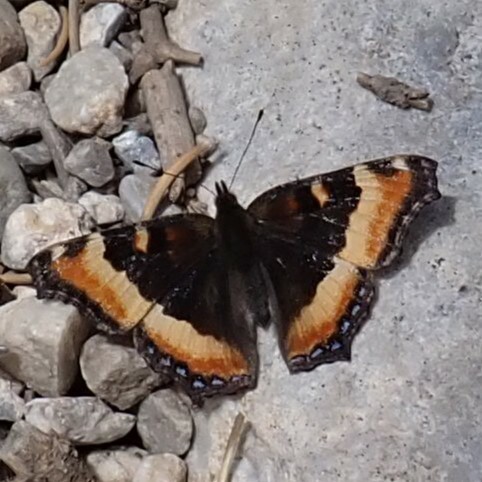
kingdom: Animalia
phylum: Arthropoda
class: Insecta
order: Lepidoptera
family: Nymphalidae
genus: Aglais
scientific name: Aglais milberti
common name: Milbert's tortoiseshell
